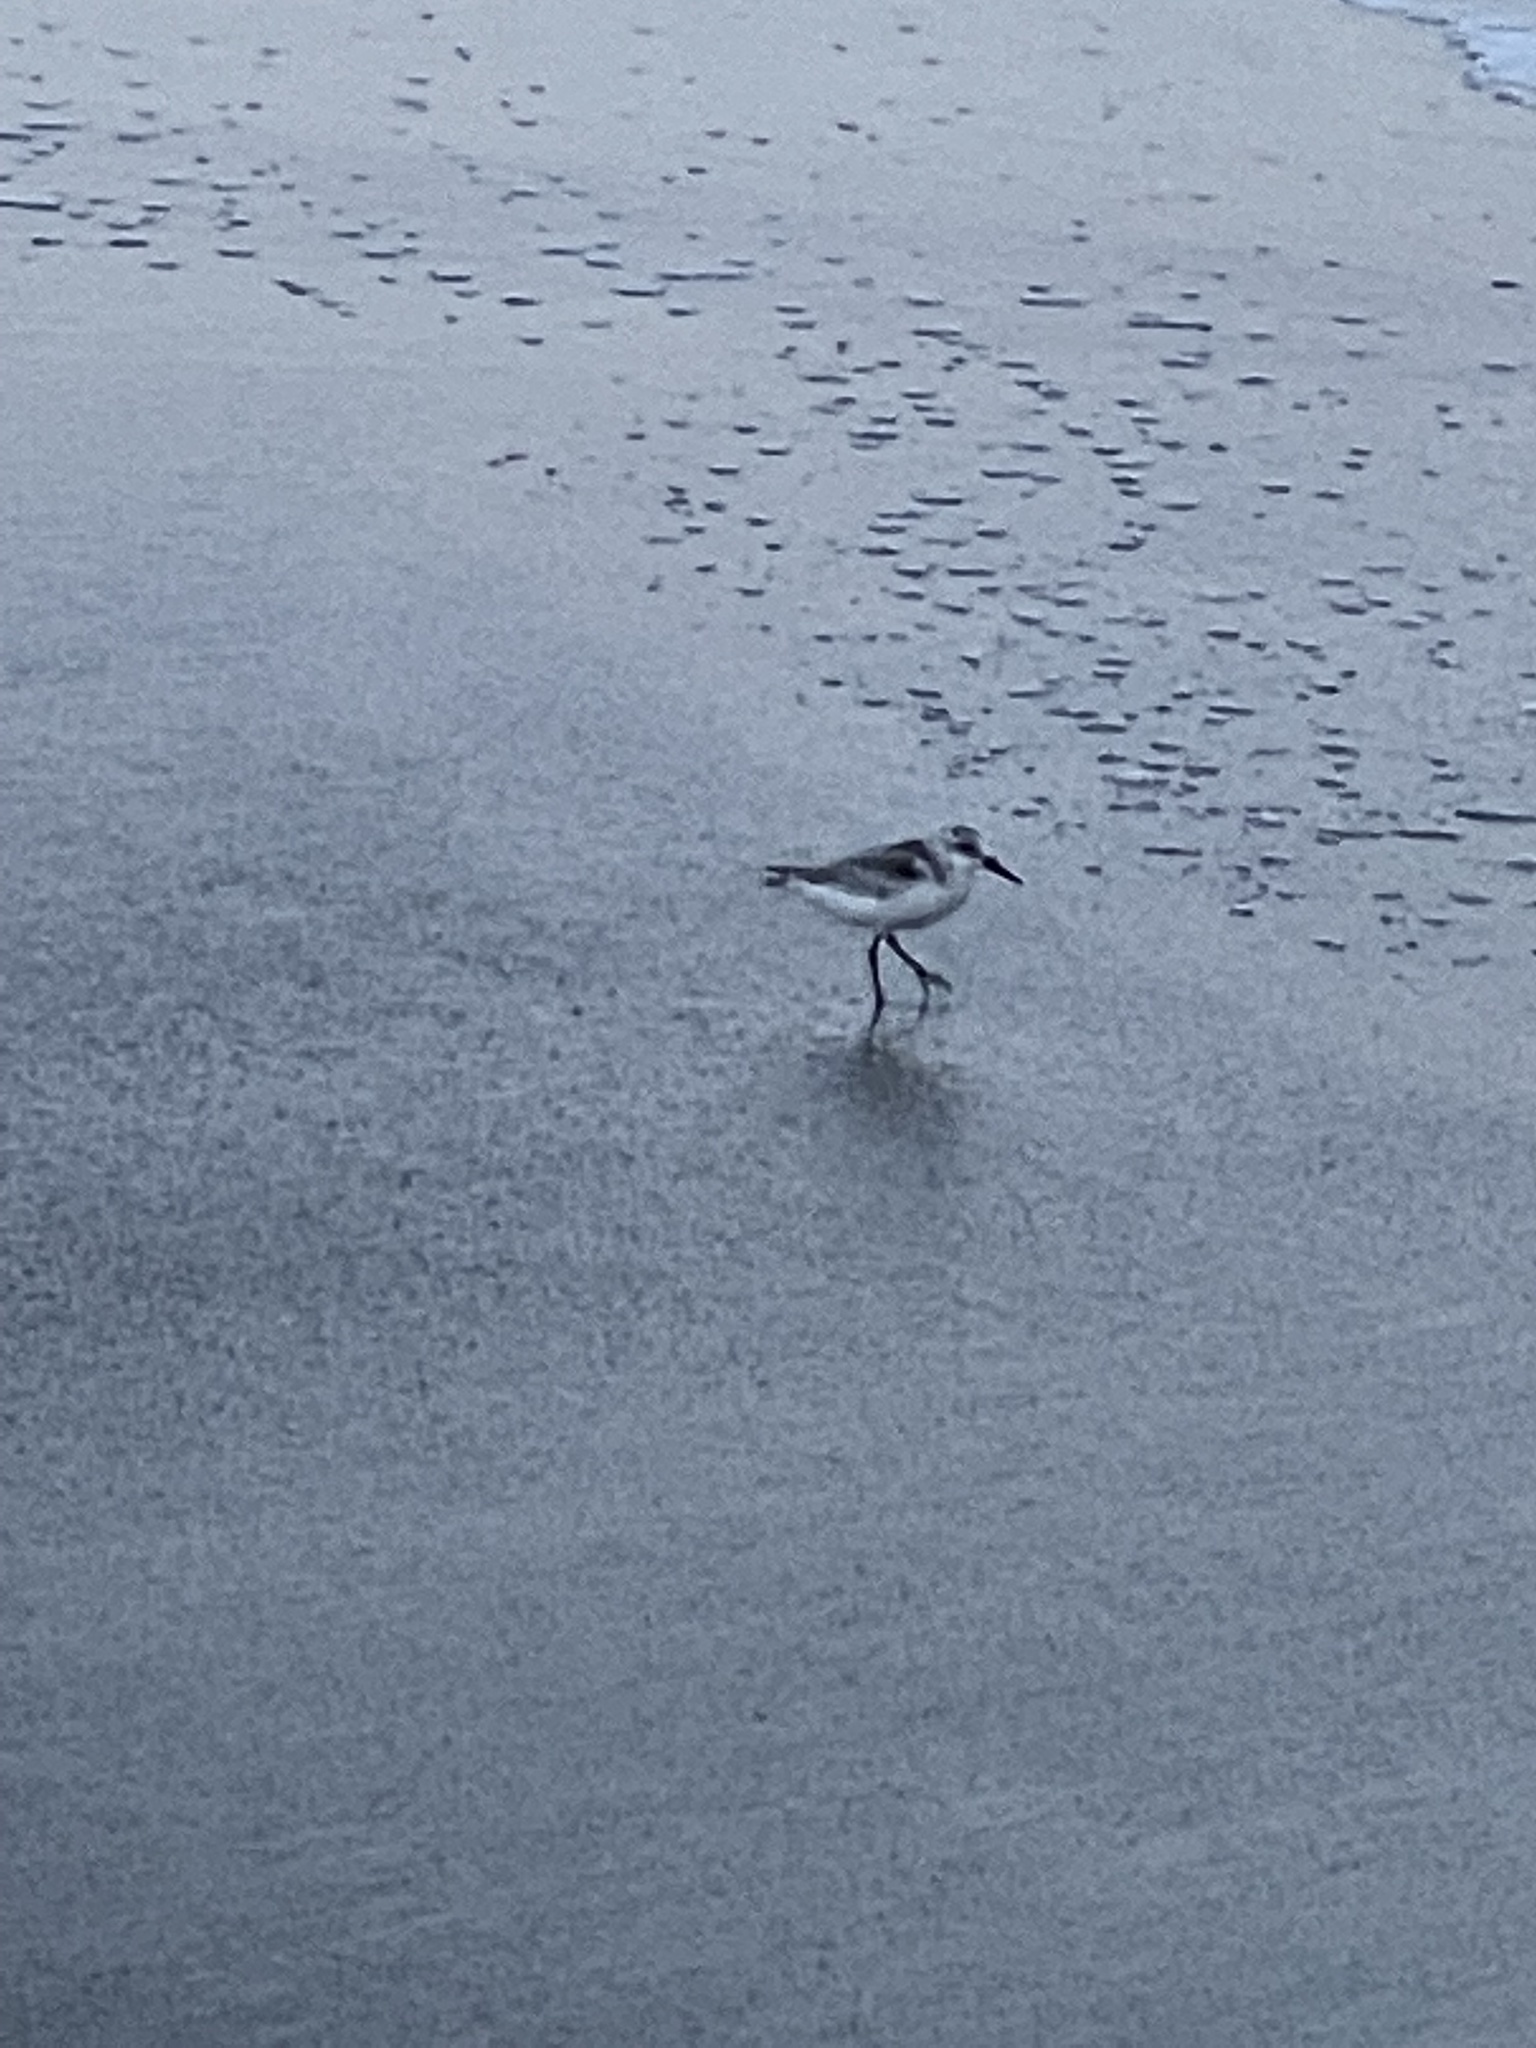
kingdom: Animalia
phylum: Chordata
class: Aves
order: Charadriiformes
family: Scolopacidae
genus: Calidris
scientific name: Calidris alba
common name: Sanderling
